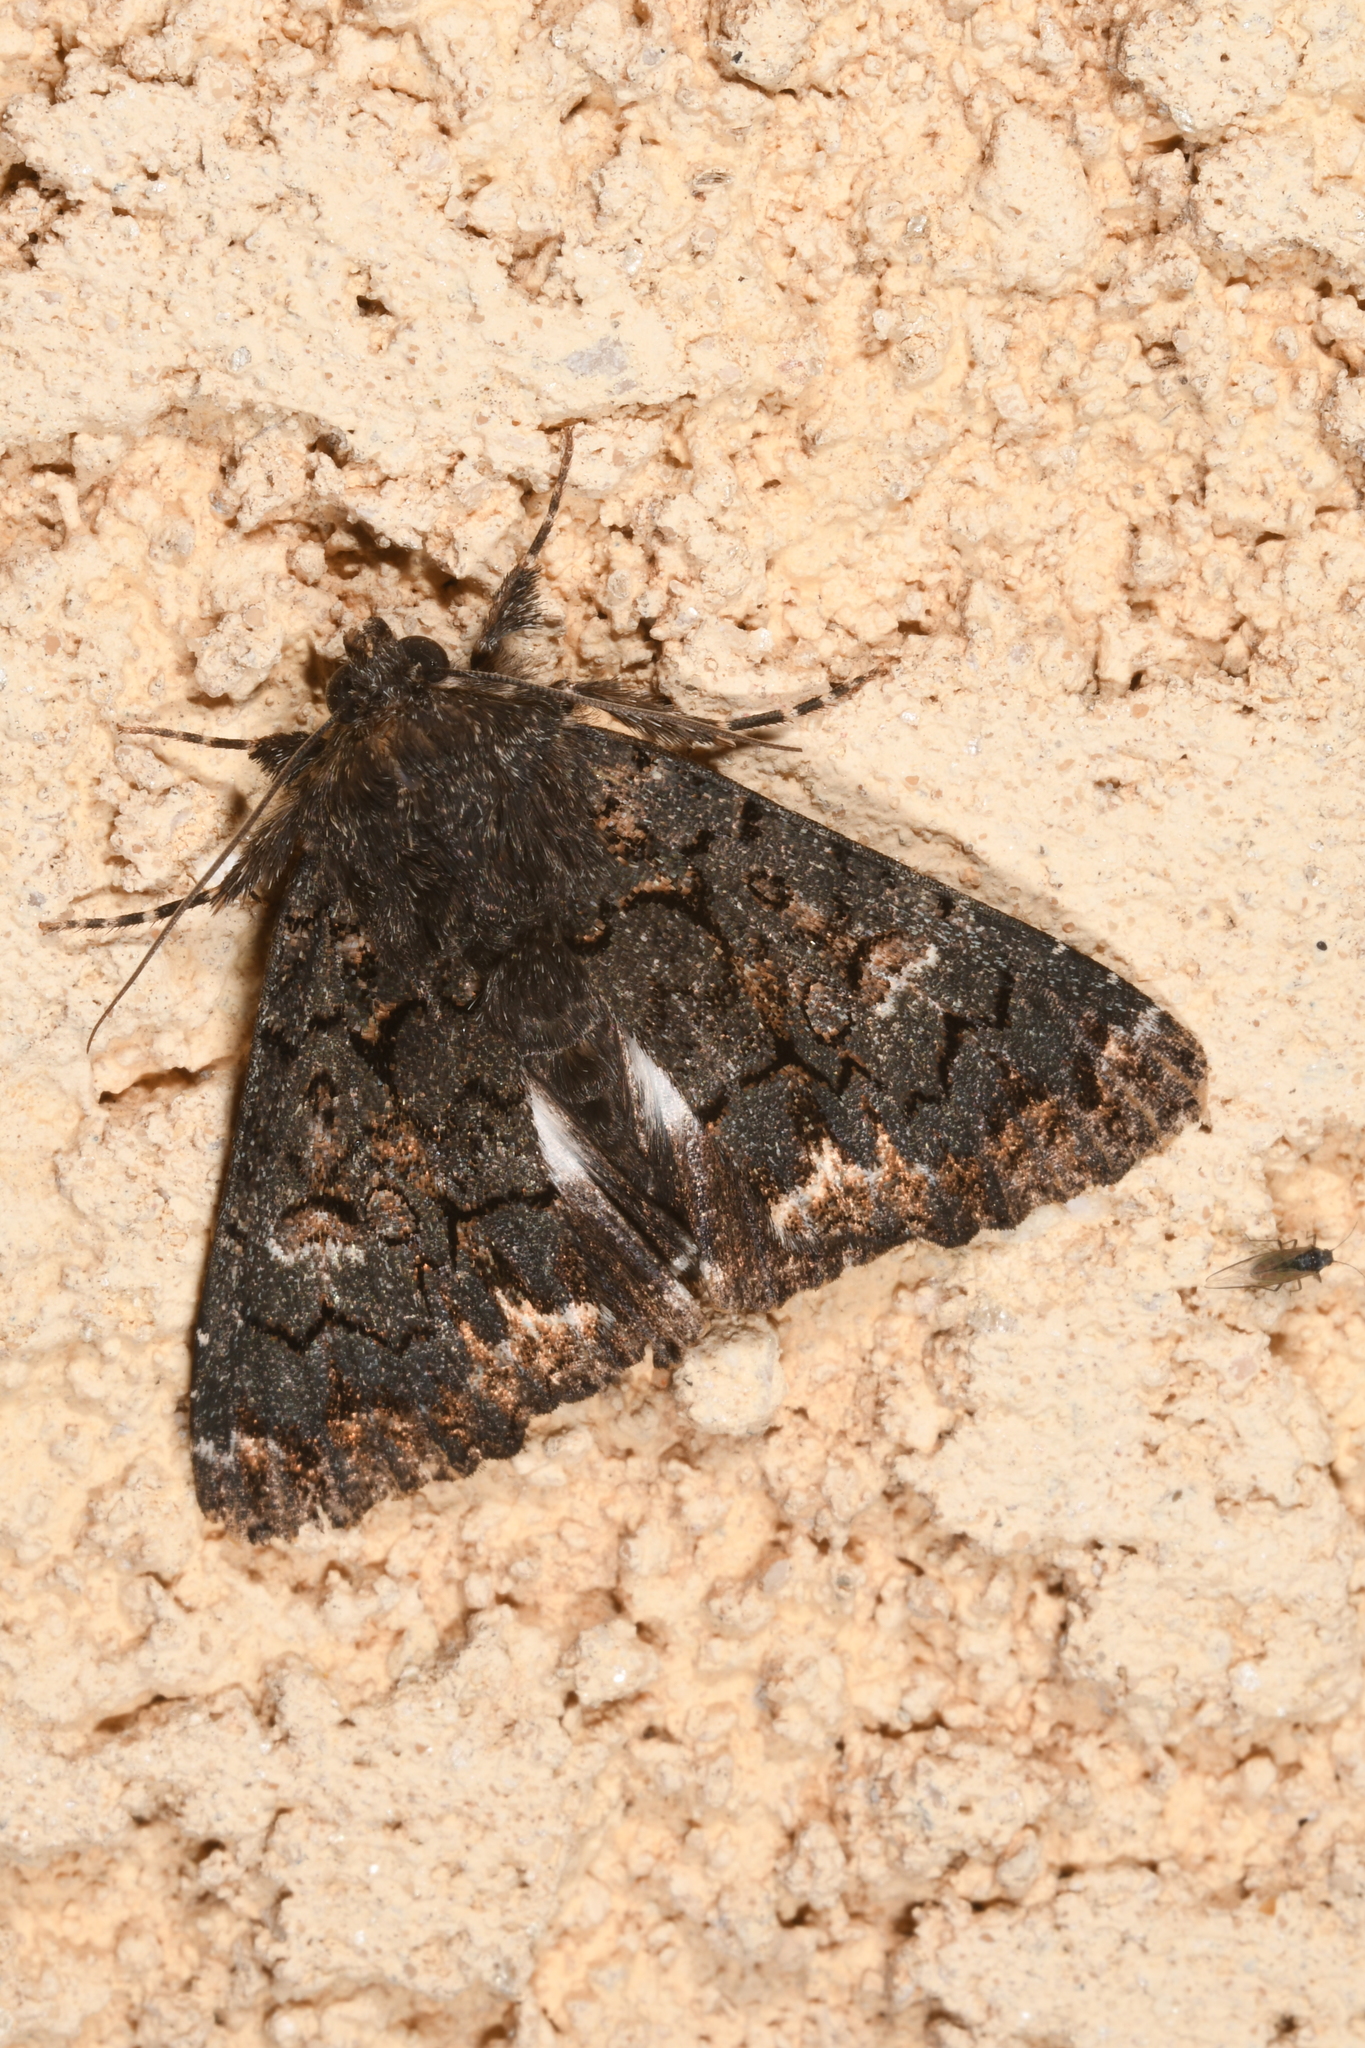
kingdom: Animalia
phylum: Arthropoda
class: Insecta
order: Lepidoptera
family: Erebidae
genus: Catephia
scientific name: Catephia alchymista
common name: Alchymist
